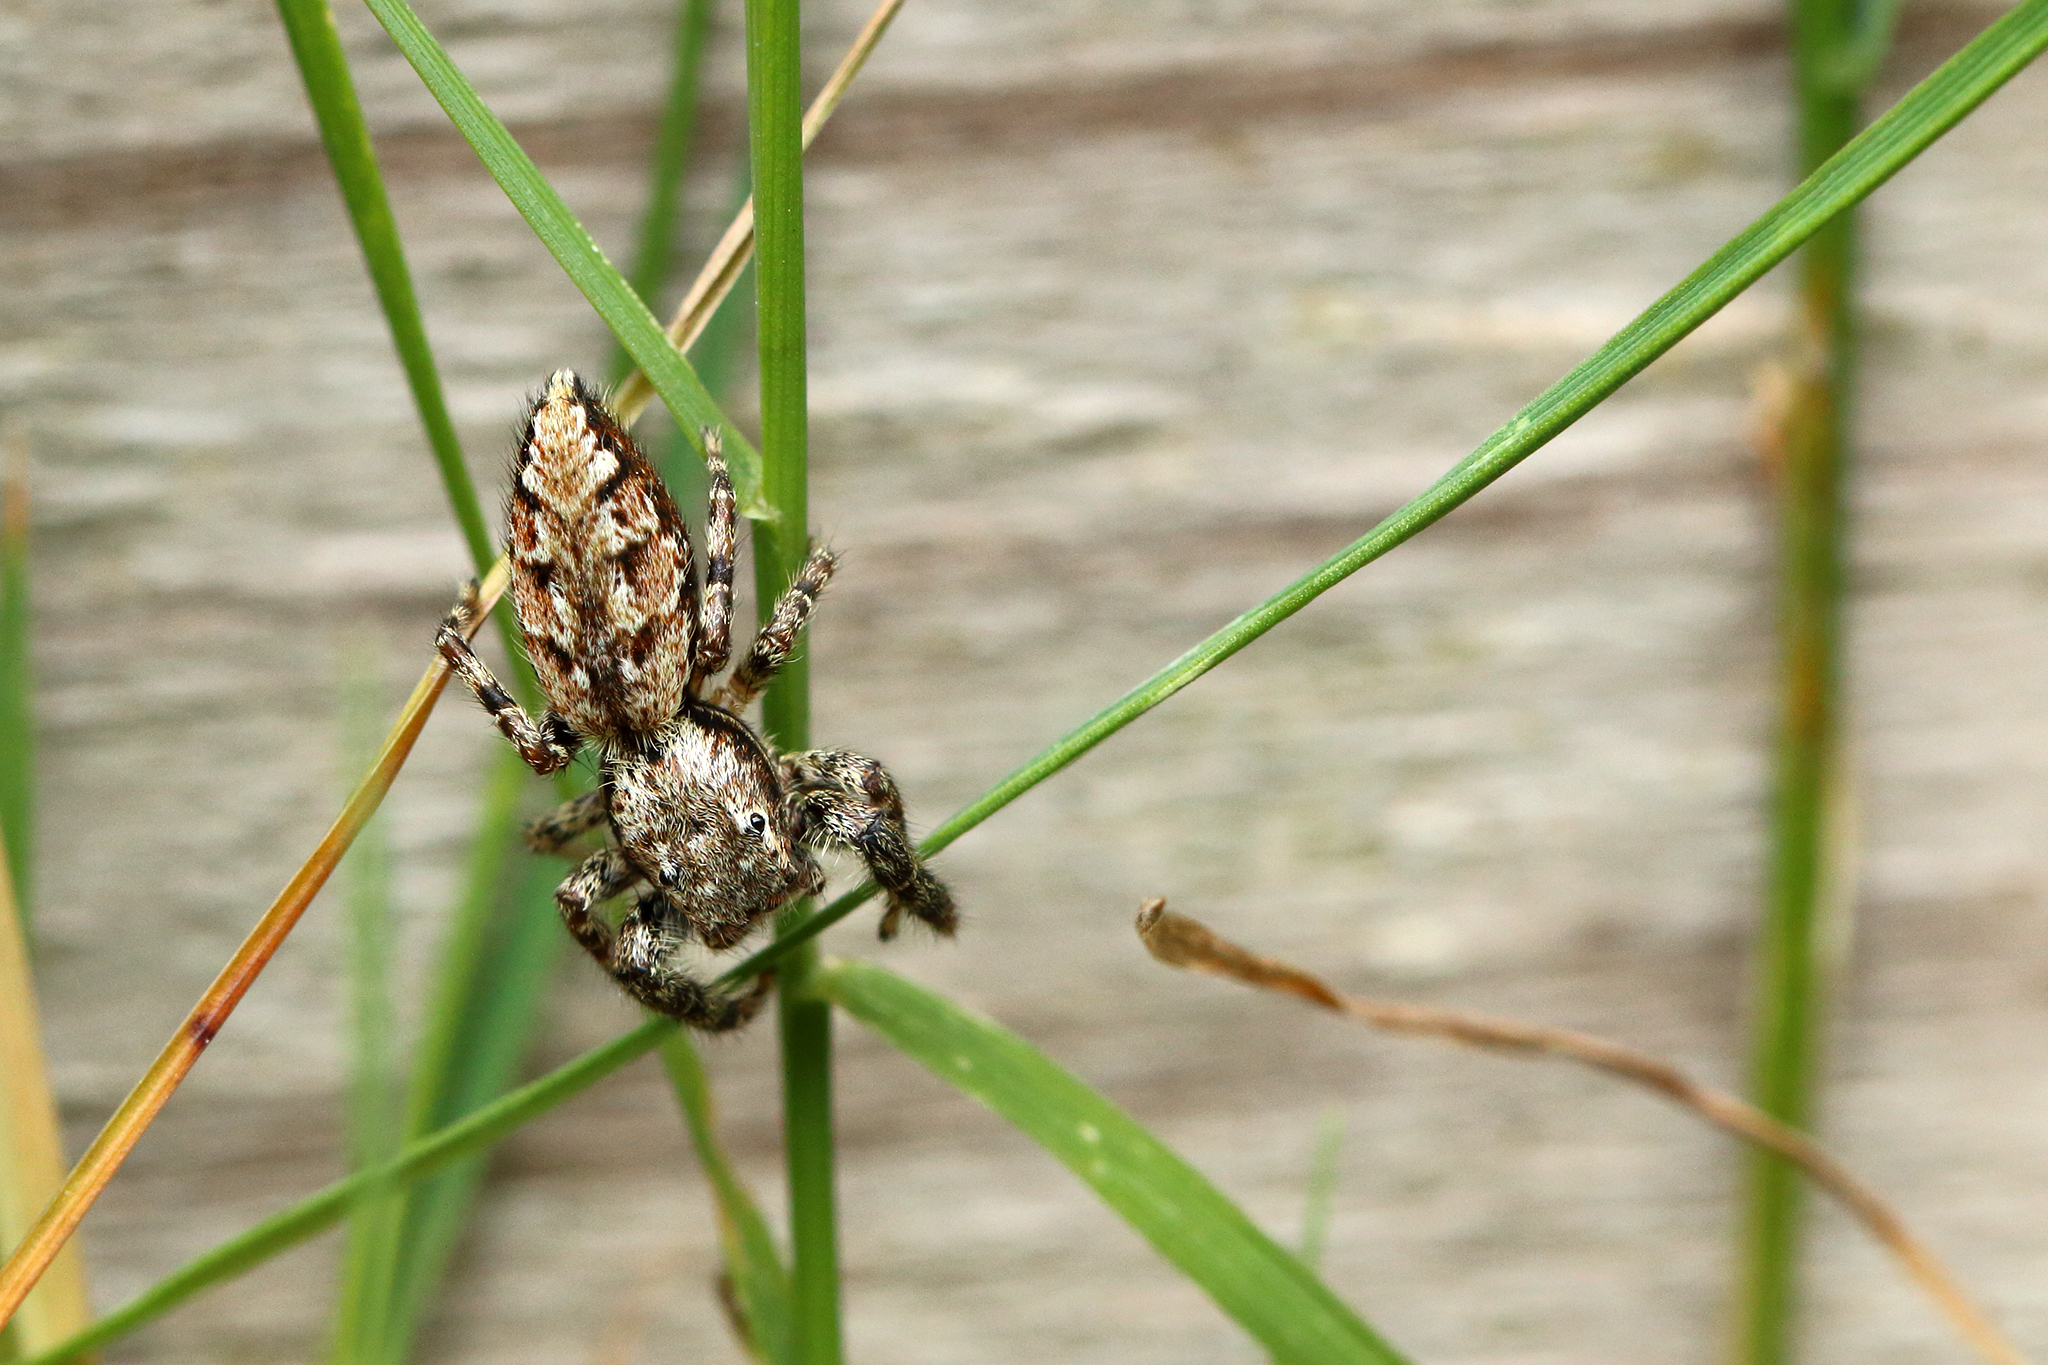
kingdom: Animalia
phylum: Arthropoda
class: Arachnida
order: Araneae
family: Salticidae
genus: Marpissa
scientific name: Marpissa muscosa
